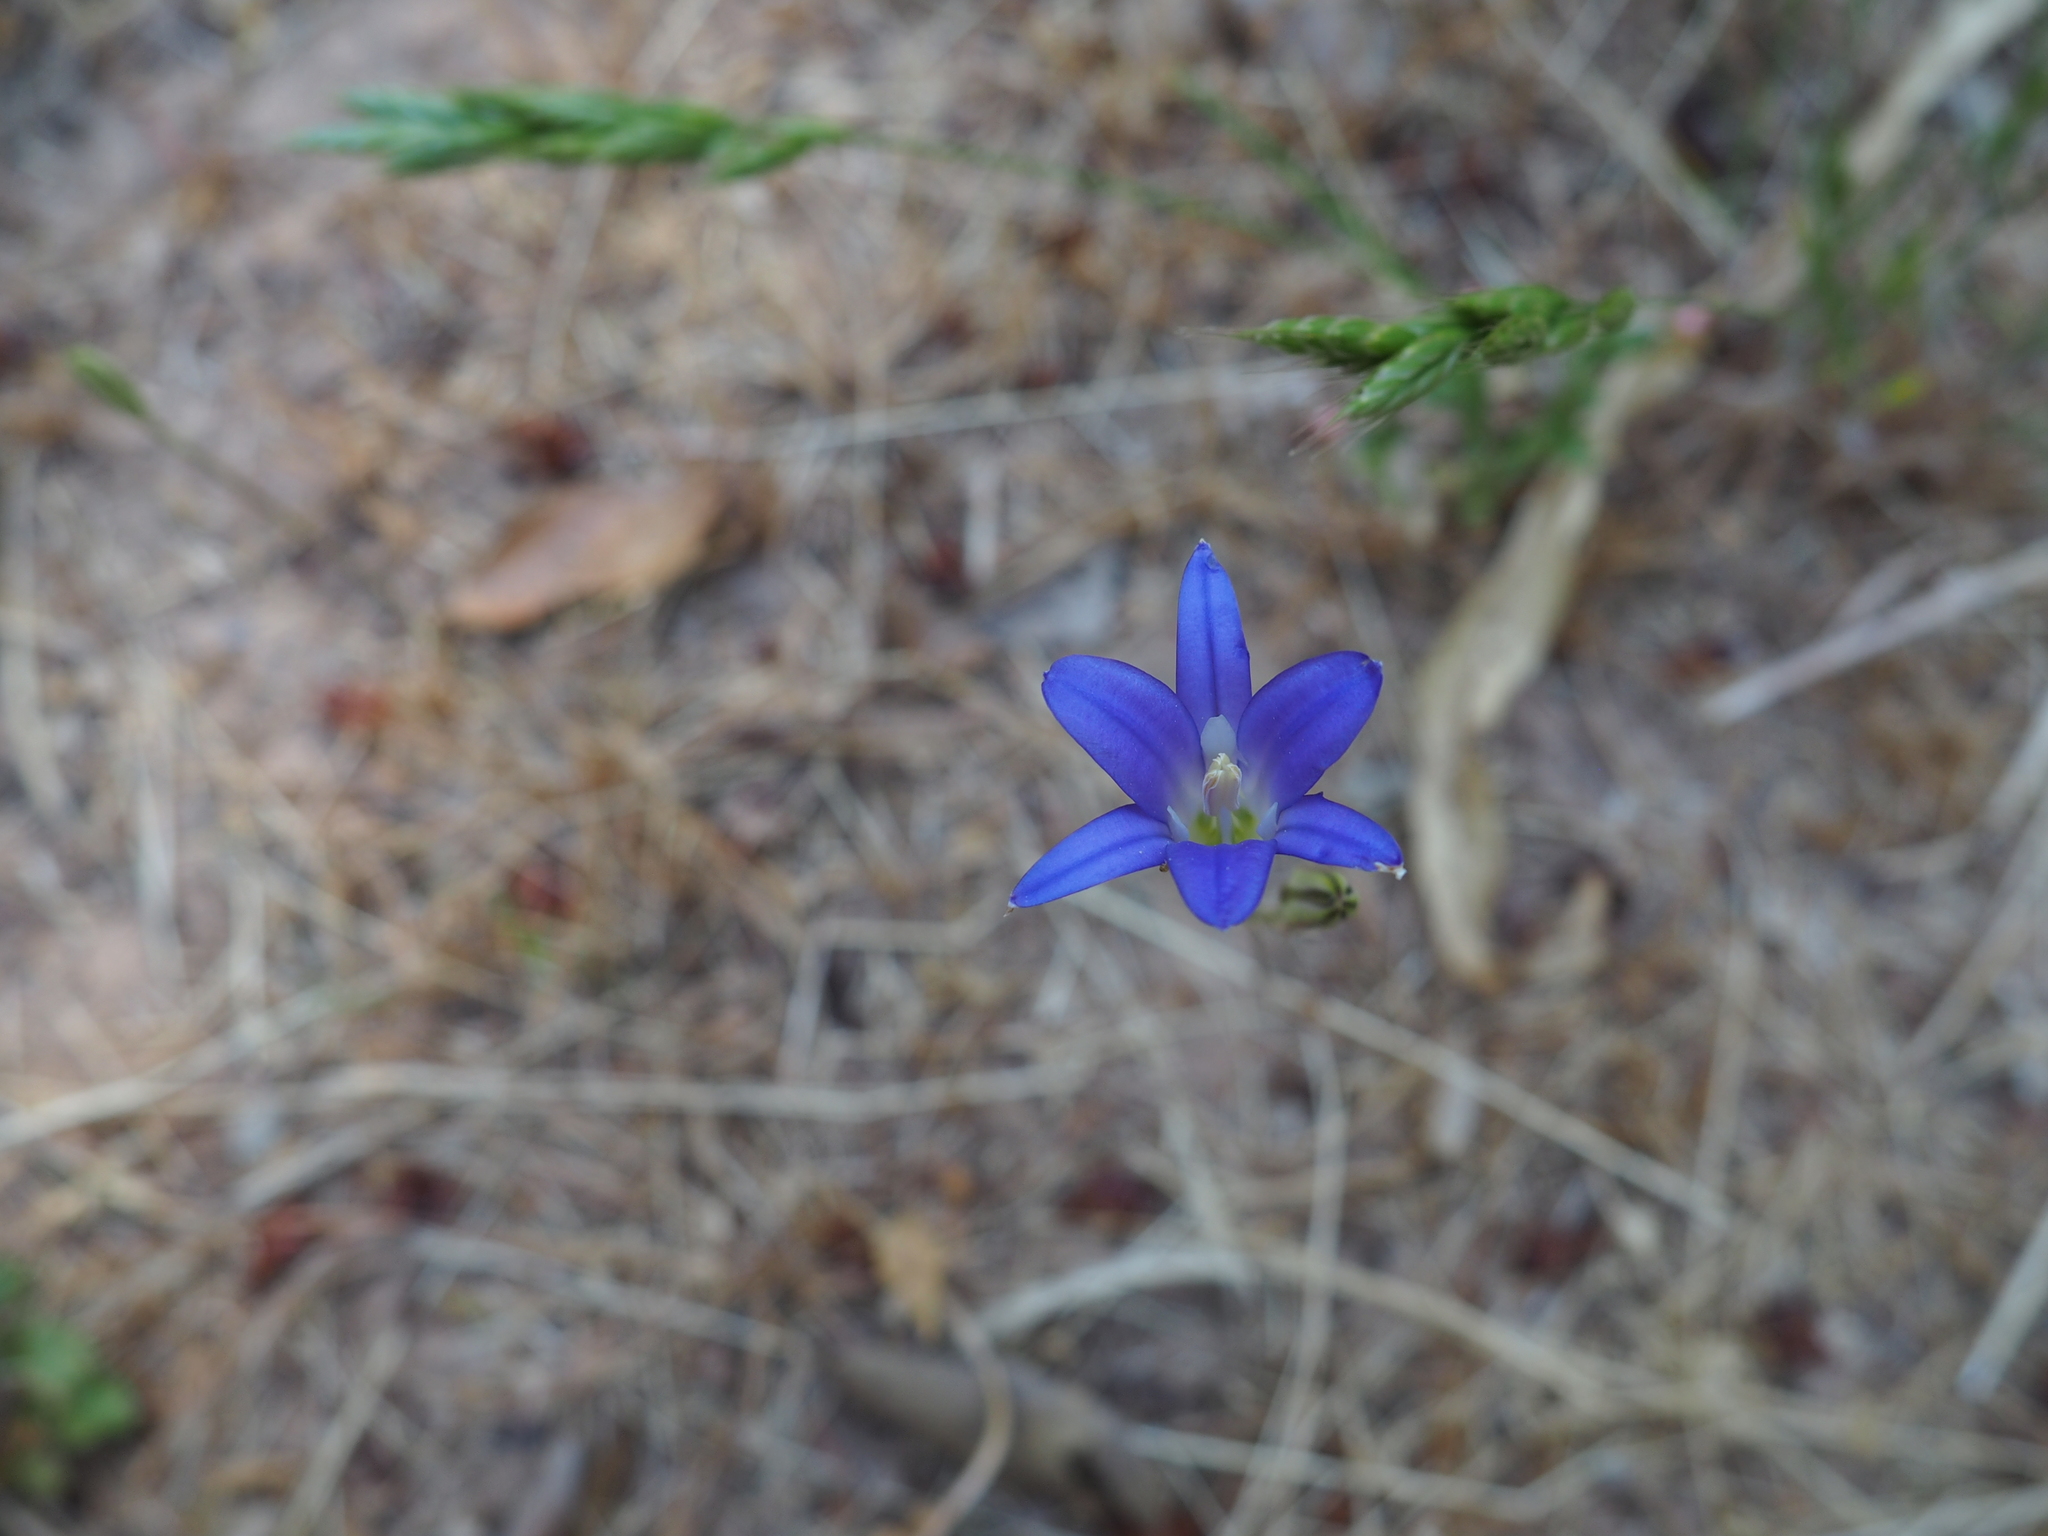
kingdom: Plantae
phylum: Tracheophyta
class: Liliopsida
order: Asparagales
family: Asparagaceae
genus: Brodiaea
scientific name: Brodiaea elegans
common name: Elegant cluster-lily
